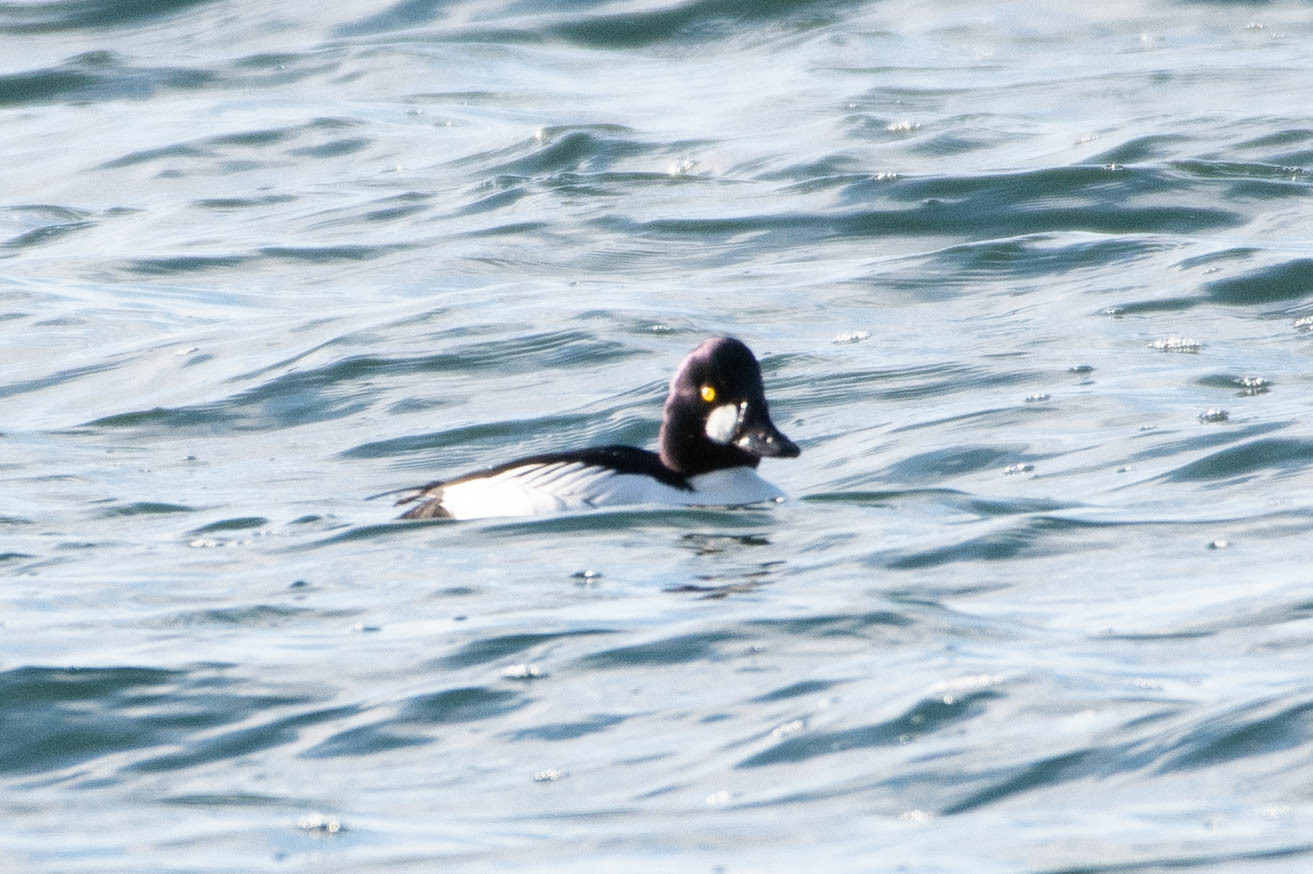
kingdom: Animalia
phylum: Chordata
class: Aves
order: Anseriformes
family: Anatidae
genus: Bucephala
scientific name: Bucephala clangula
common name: Common goldeneye
